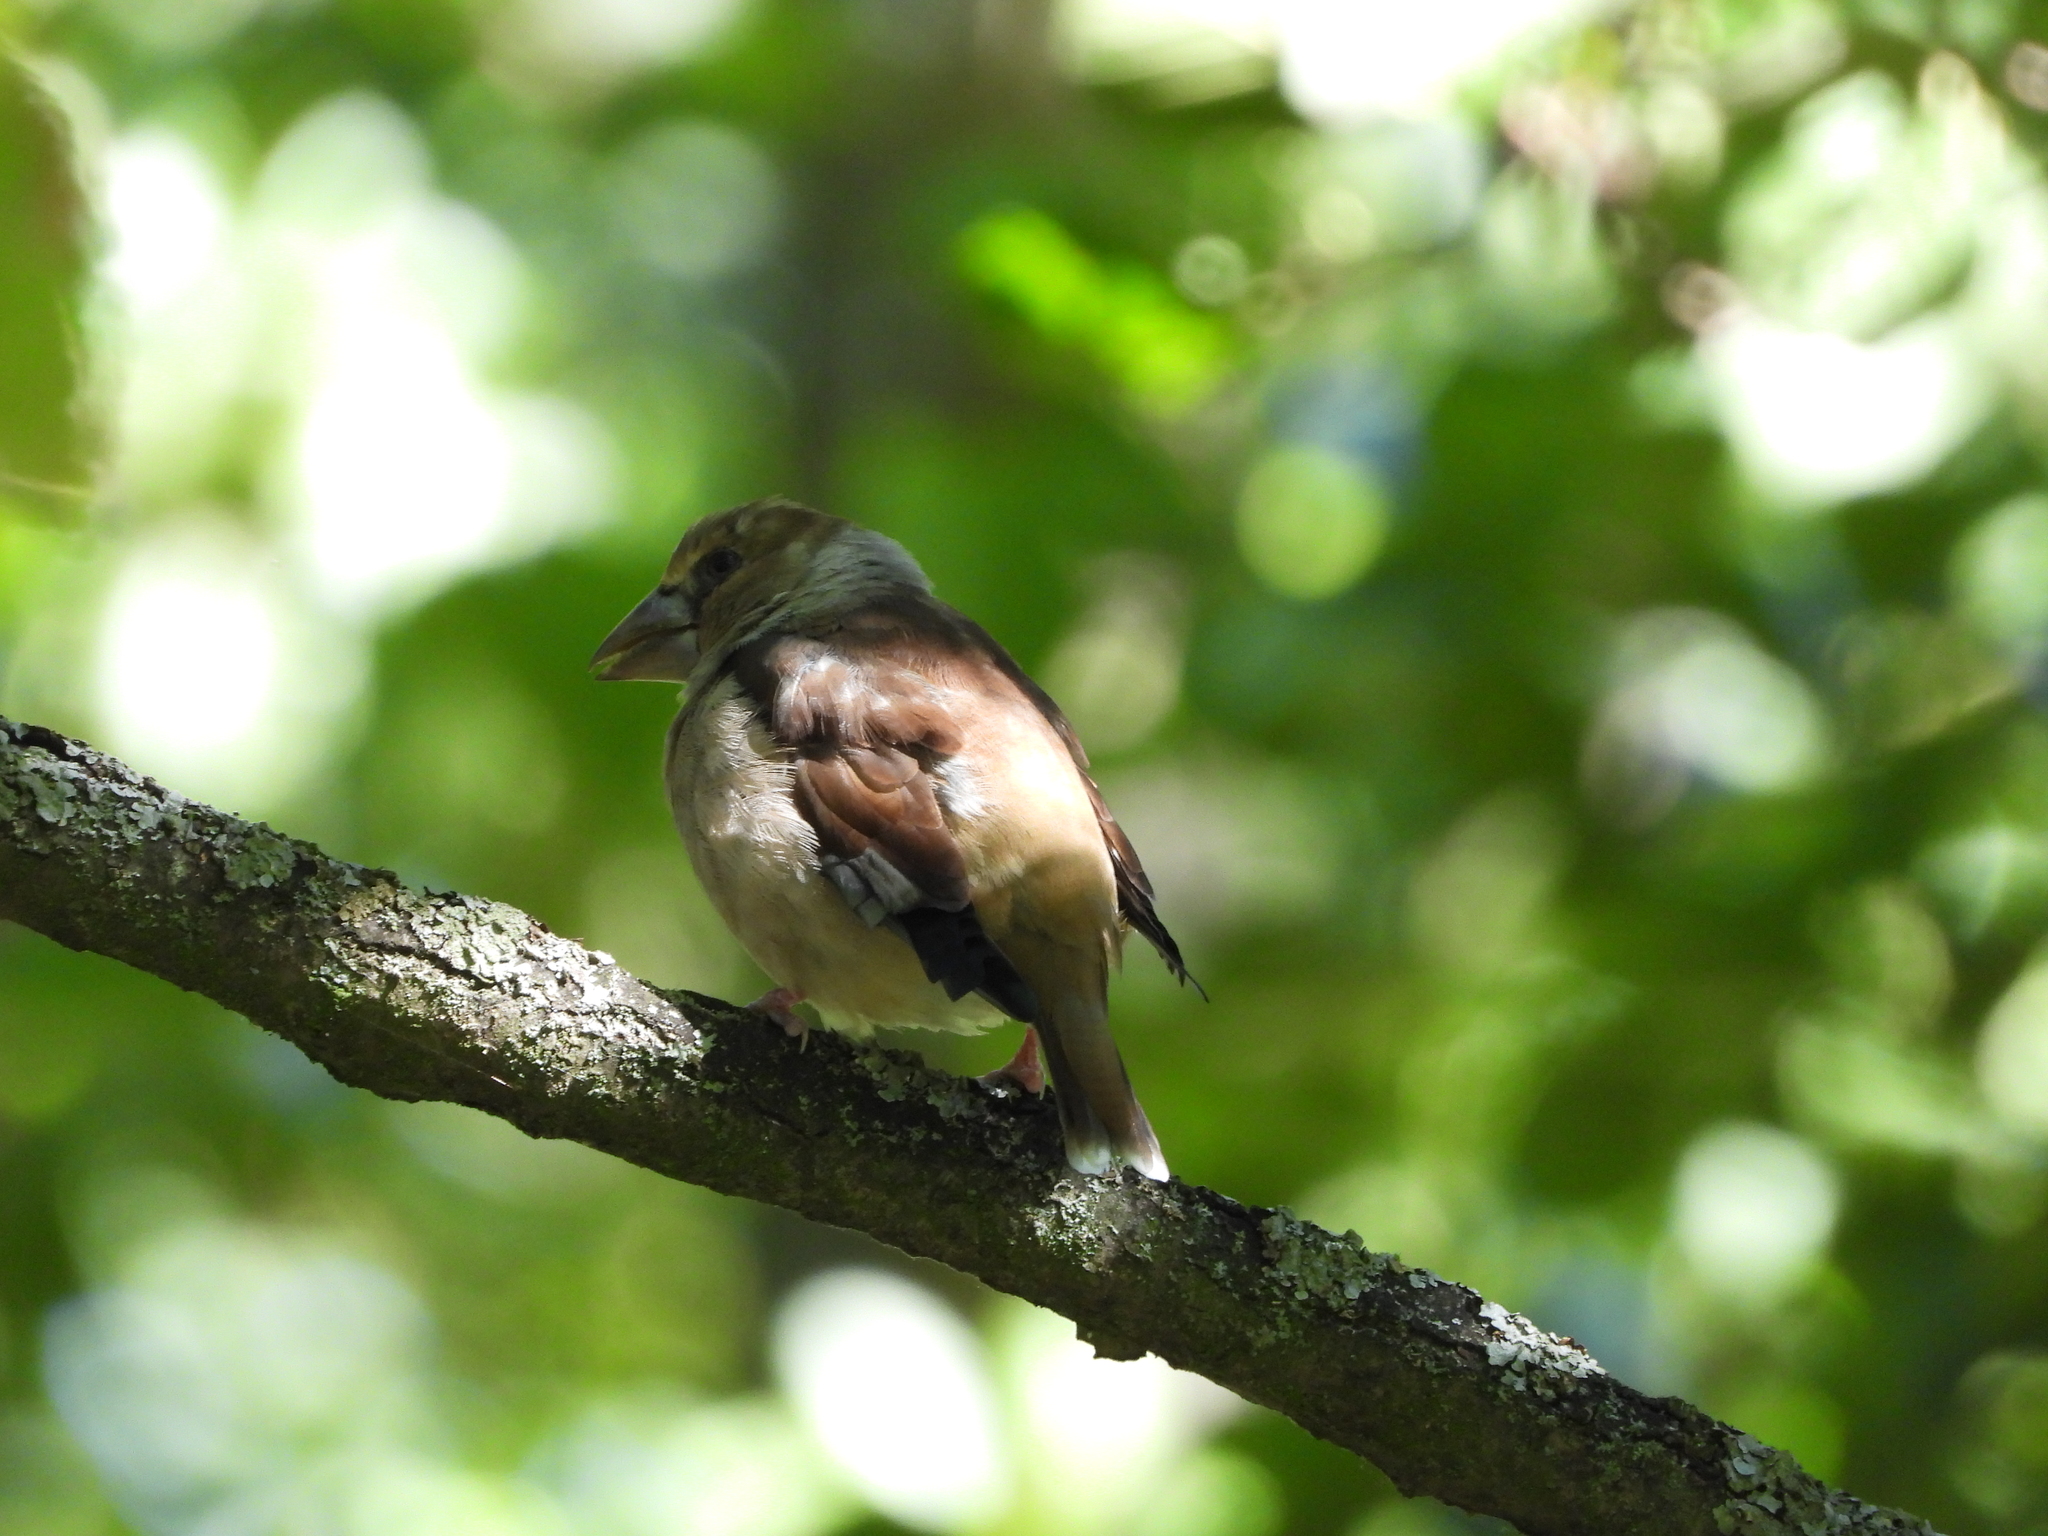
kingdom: Animalia
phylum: Chordata
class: Aves
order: Passeriformes
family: Fringillidae
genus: Coccothraustes
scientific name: Coccothraustes coccothraustes
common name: Hawfinch
